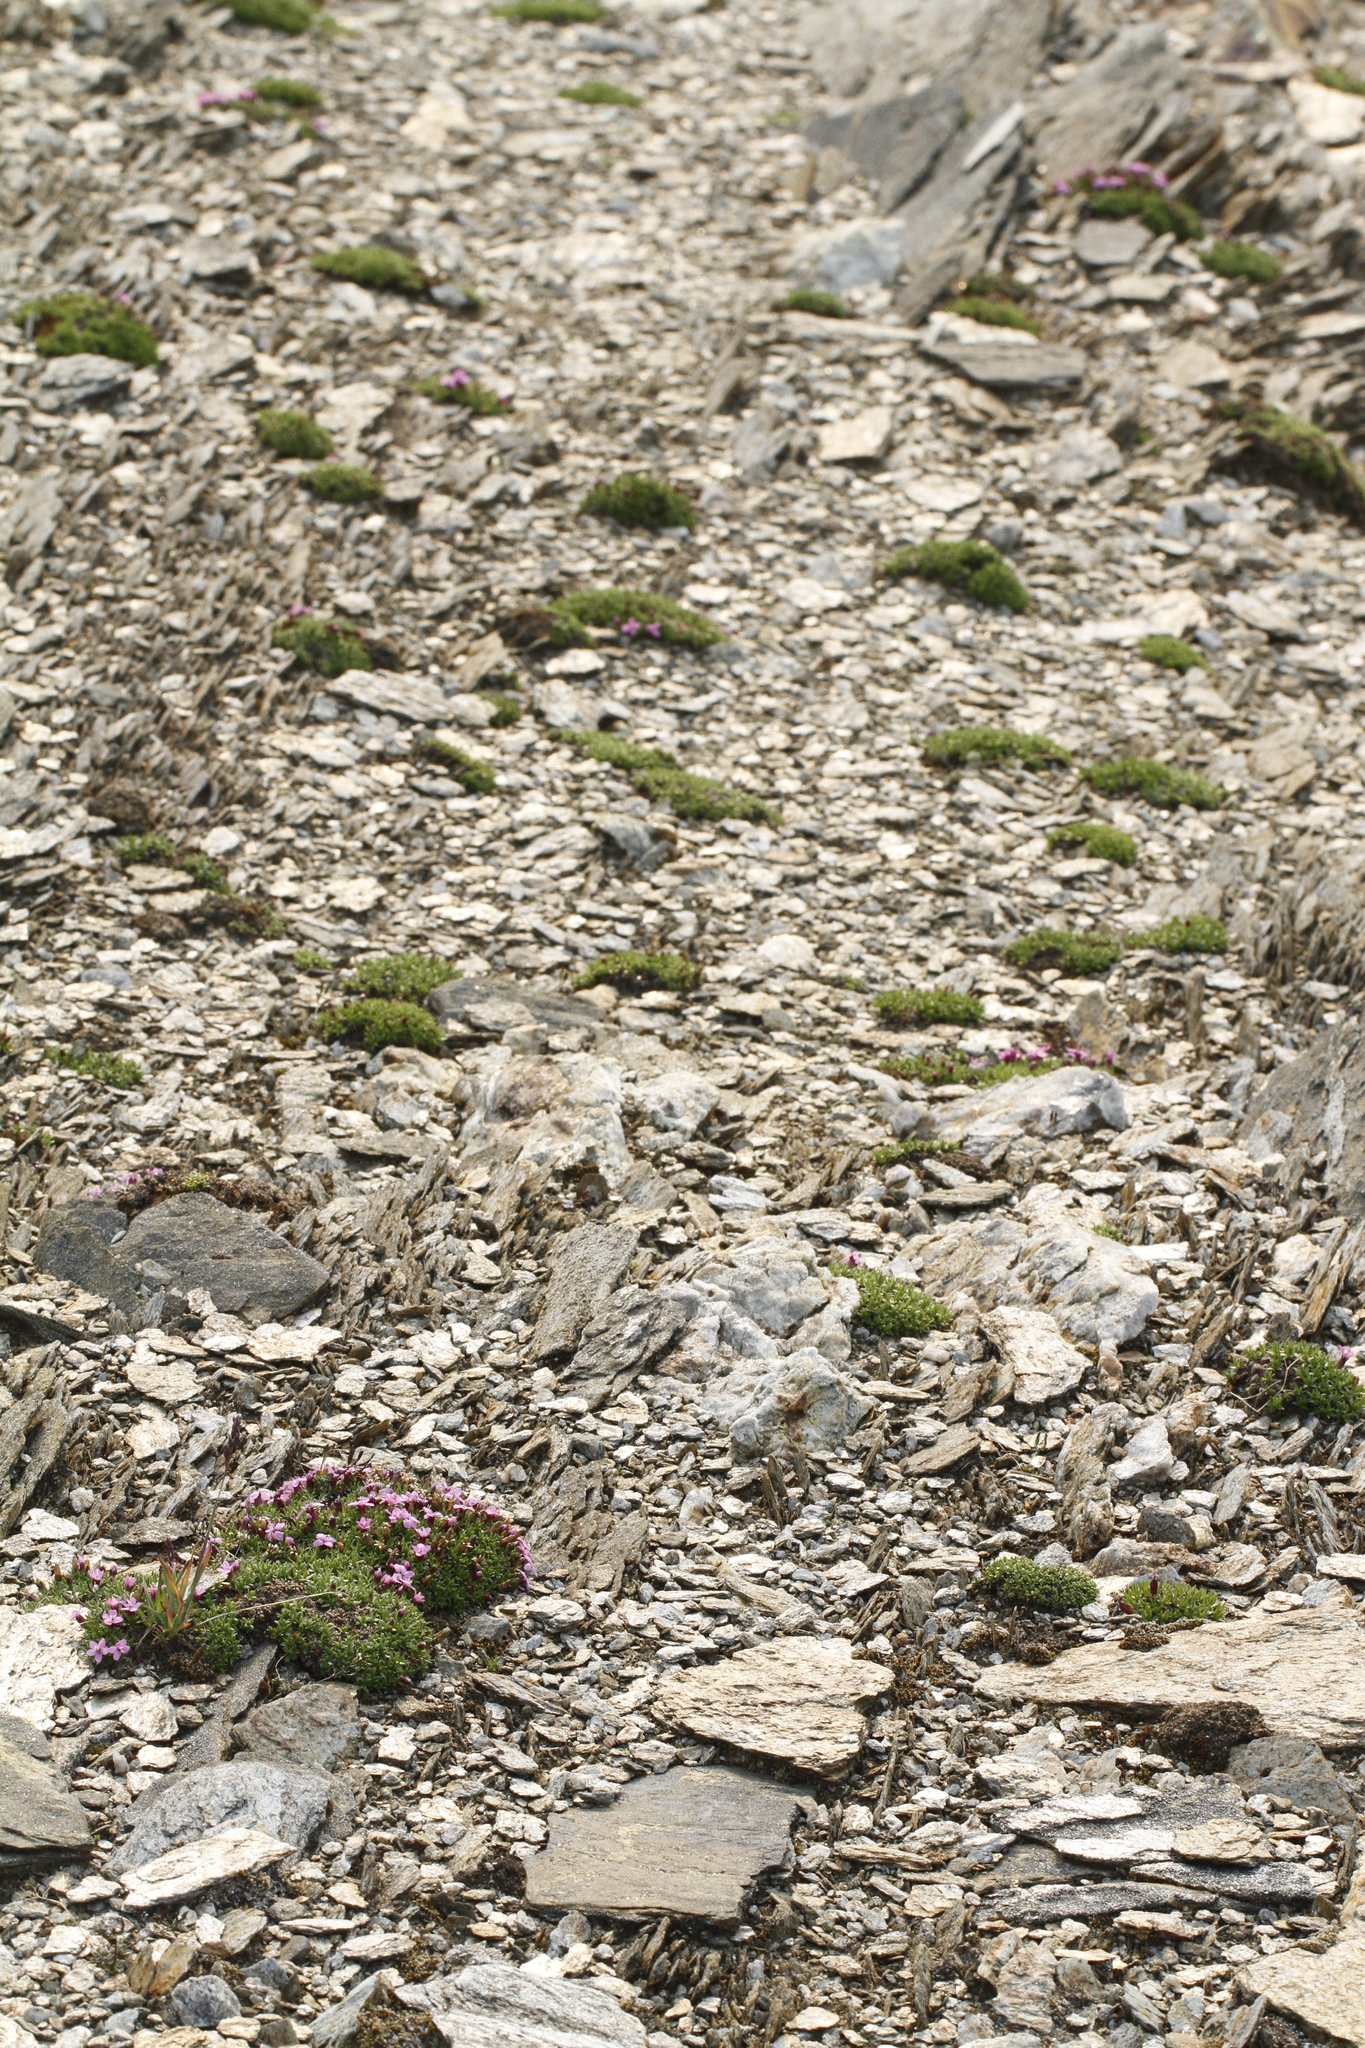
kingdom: Plantae
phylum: Tracheophyta
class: Magnoliopsida
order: Caryophyllales
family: Caryophyllaceae
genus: Silene
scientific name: Silene acaulis
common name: Moss campion
